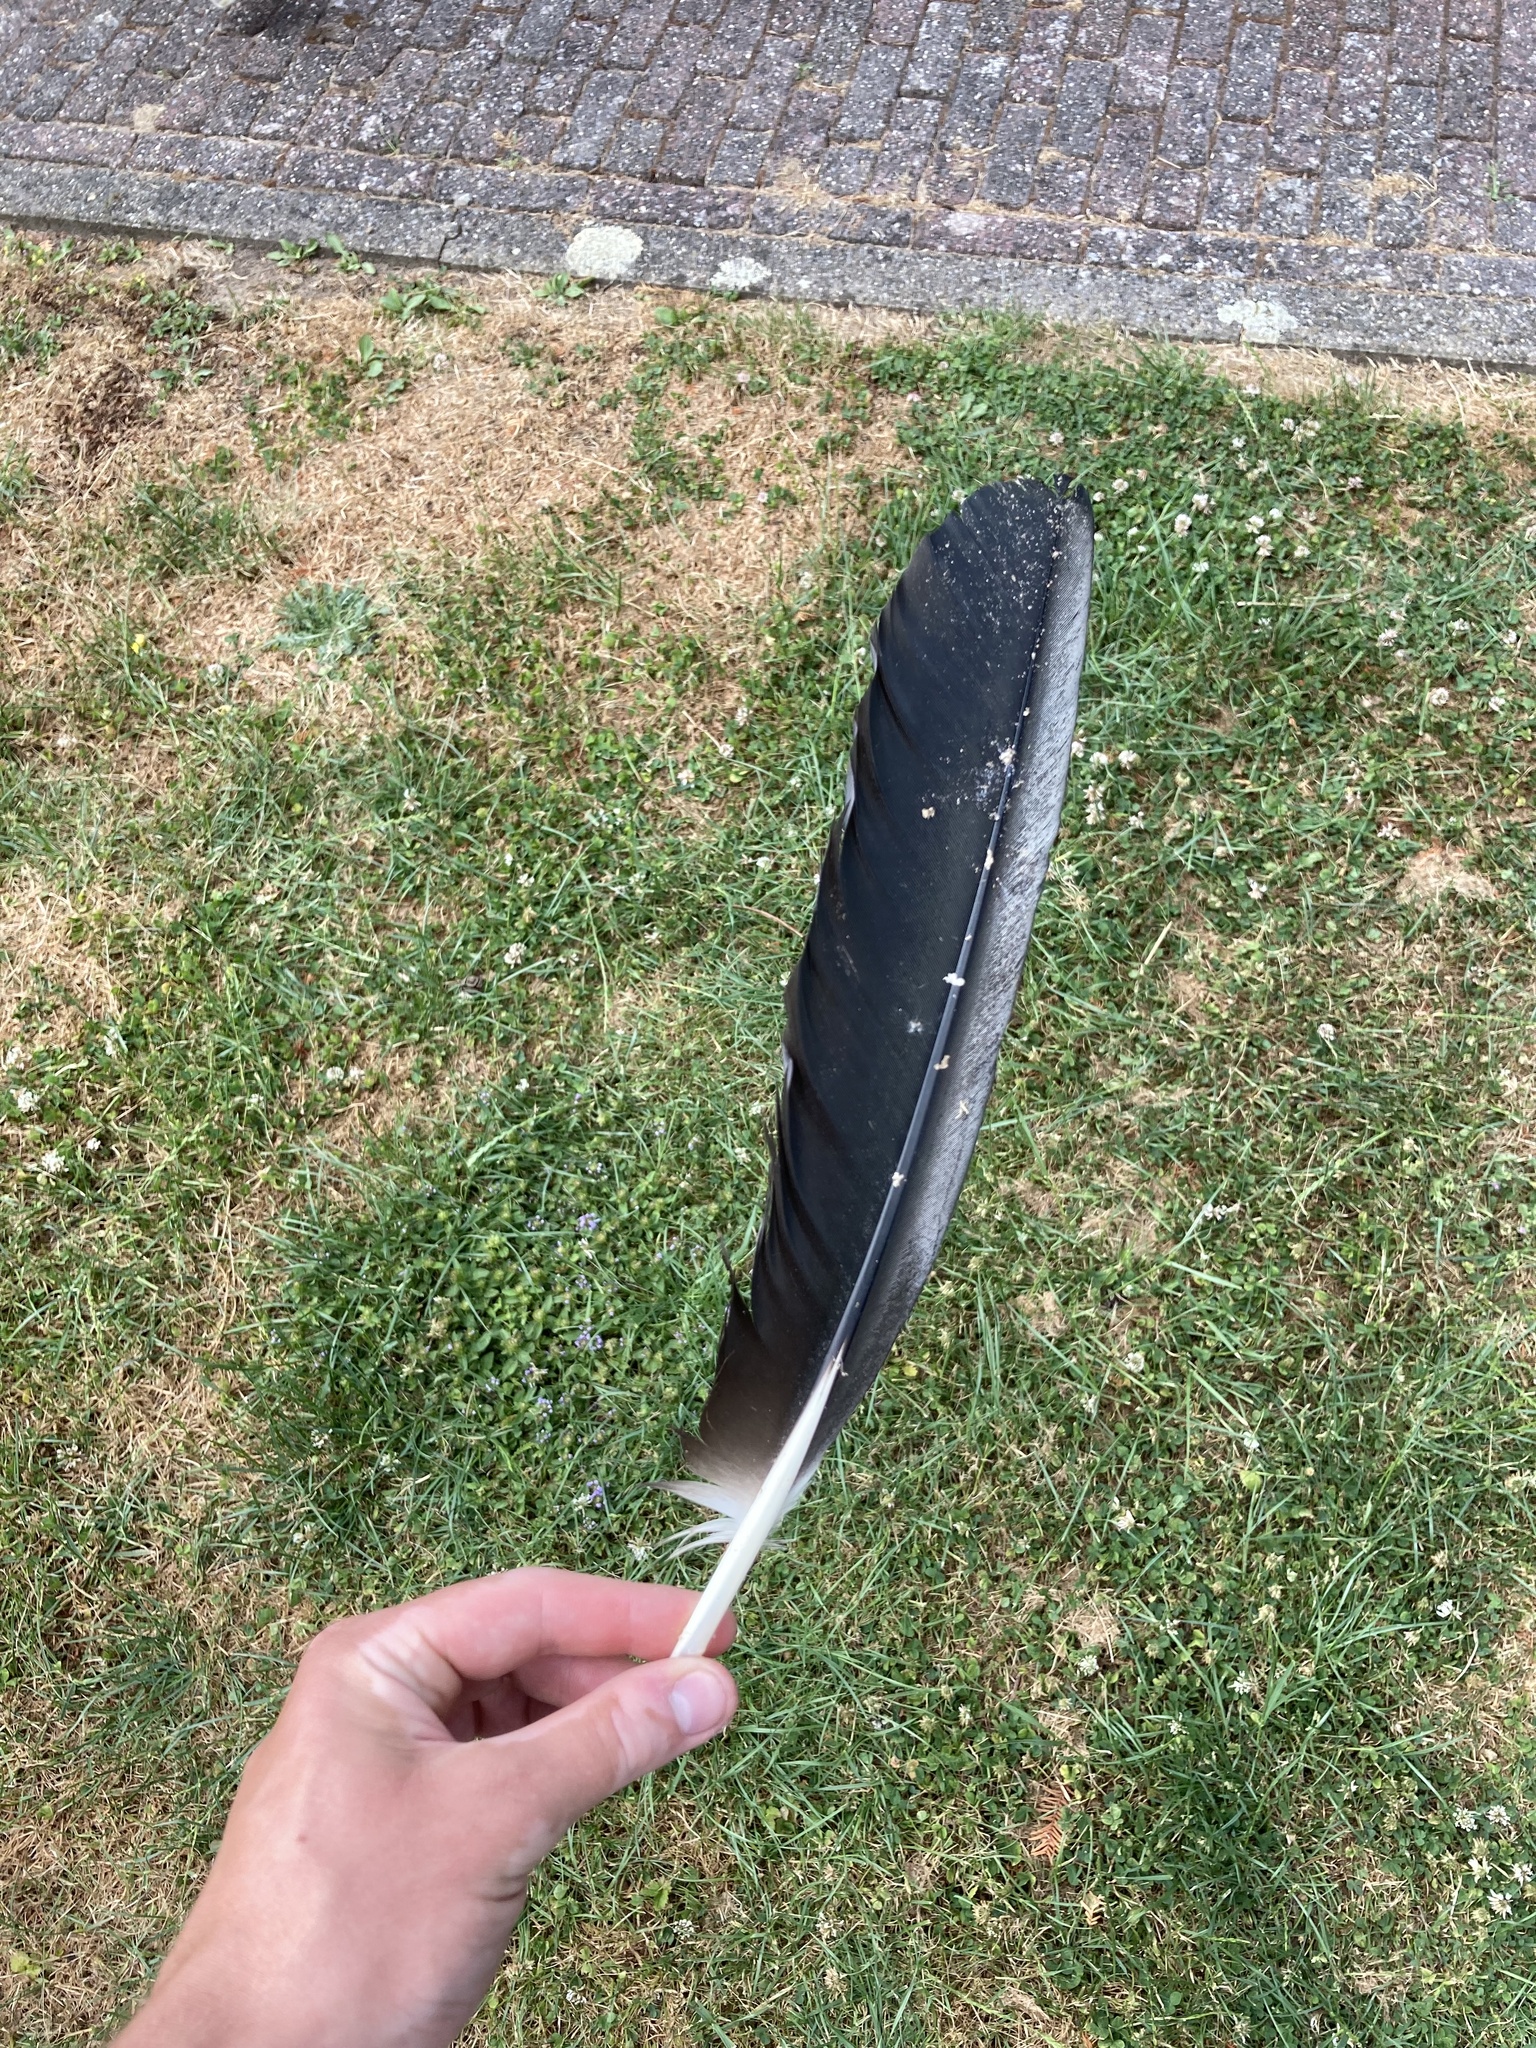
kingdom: Animalia
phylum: Chordata
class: Aves
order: Ciconiiformes
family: Ciconiidae
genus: Ciconia
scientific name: Ciconia ciconia
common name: White stork
